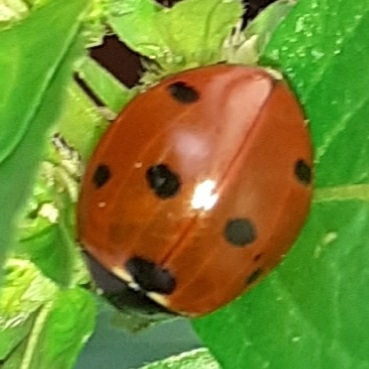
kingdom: Animalia
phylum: Arthropoda
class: Insecta
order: Coleoptera
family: Coccinellidae
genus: Coccinella
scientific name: Coccinella septempunctata
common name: Sevenspotted lady beetle
